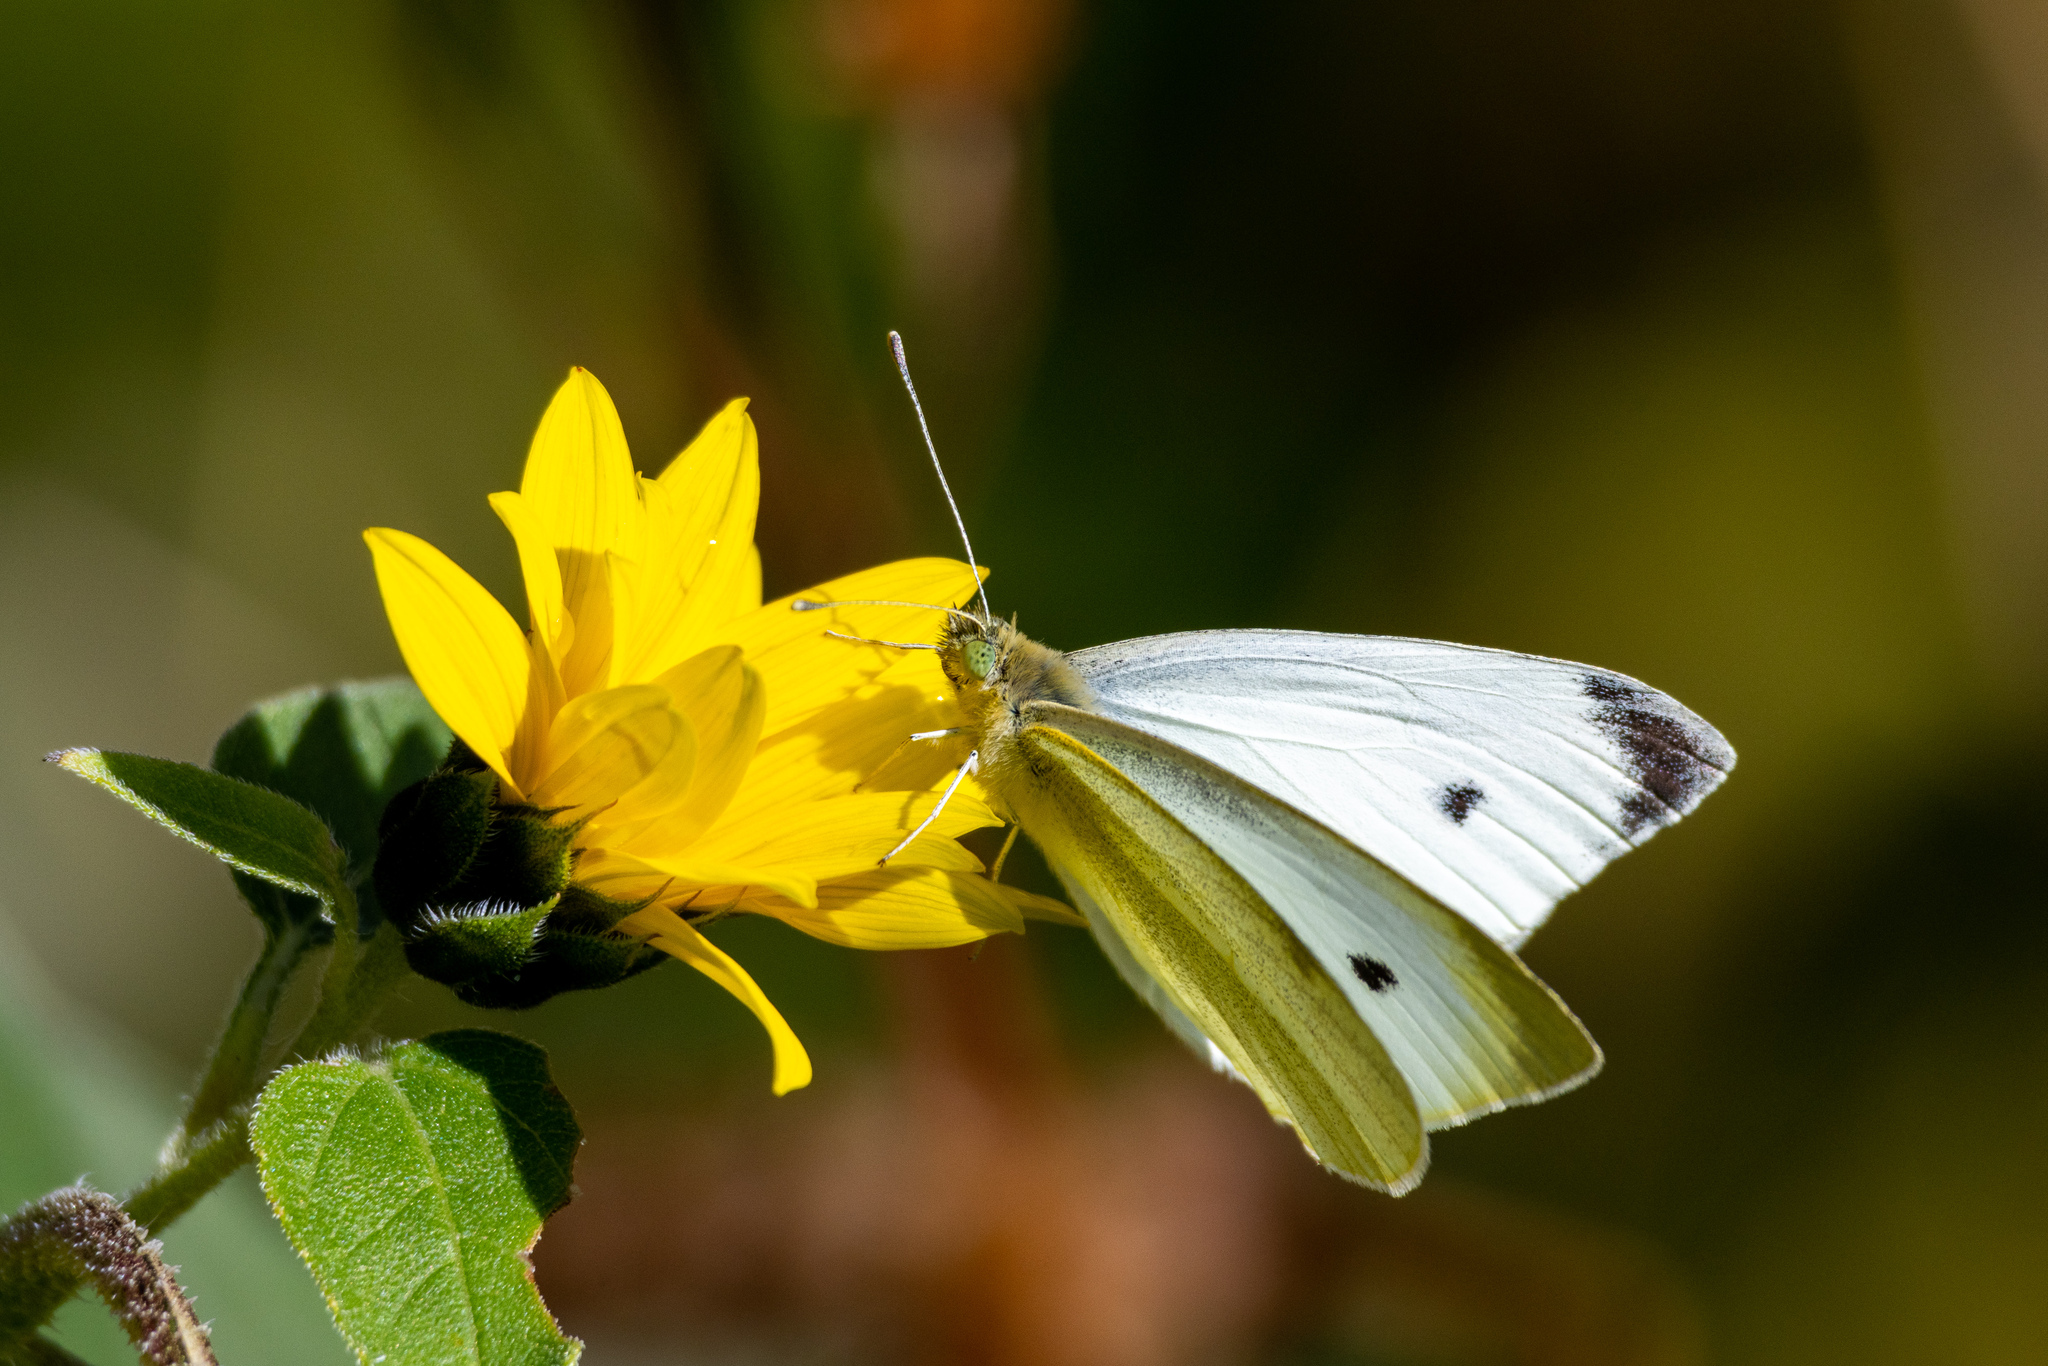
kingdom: Animalia
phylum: Arthropoda
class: Insecta
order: Lepidoptera
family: Pieridae
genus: Pieris
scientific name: Pieris rapae
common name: Small white
